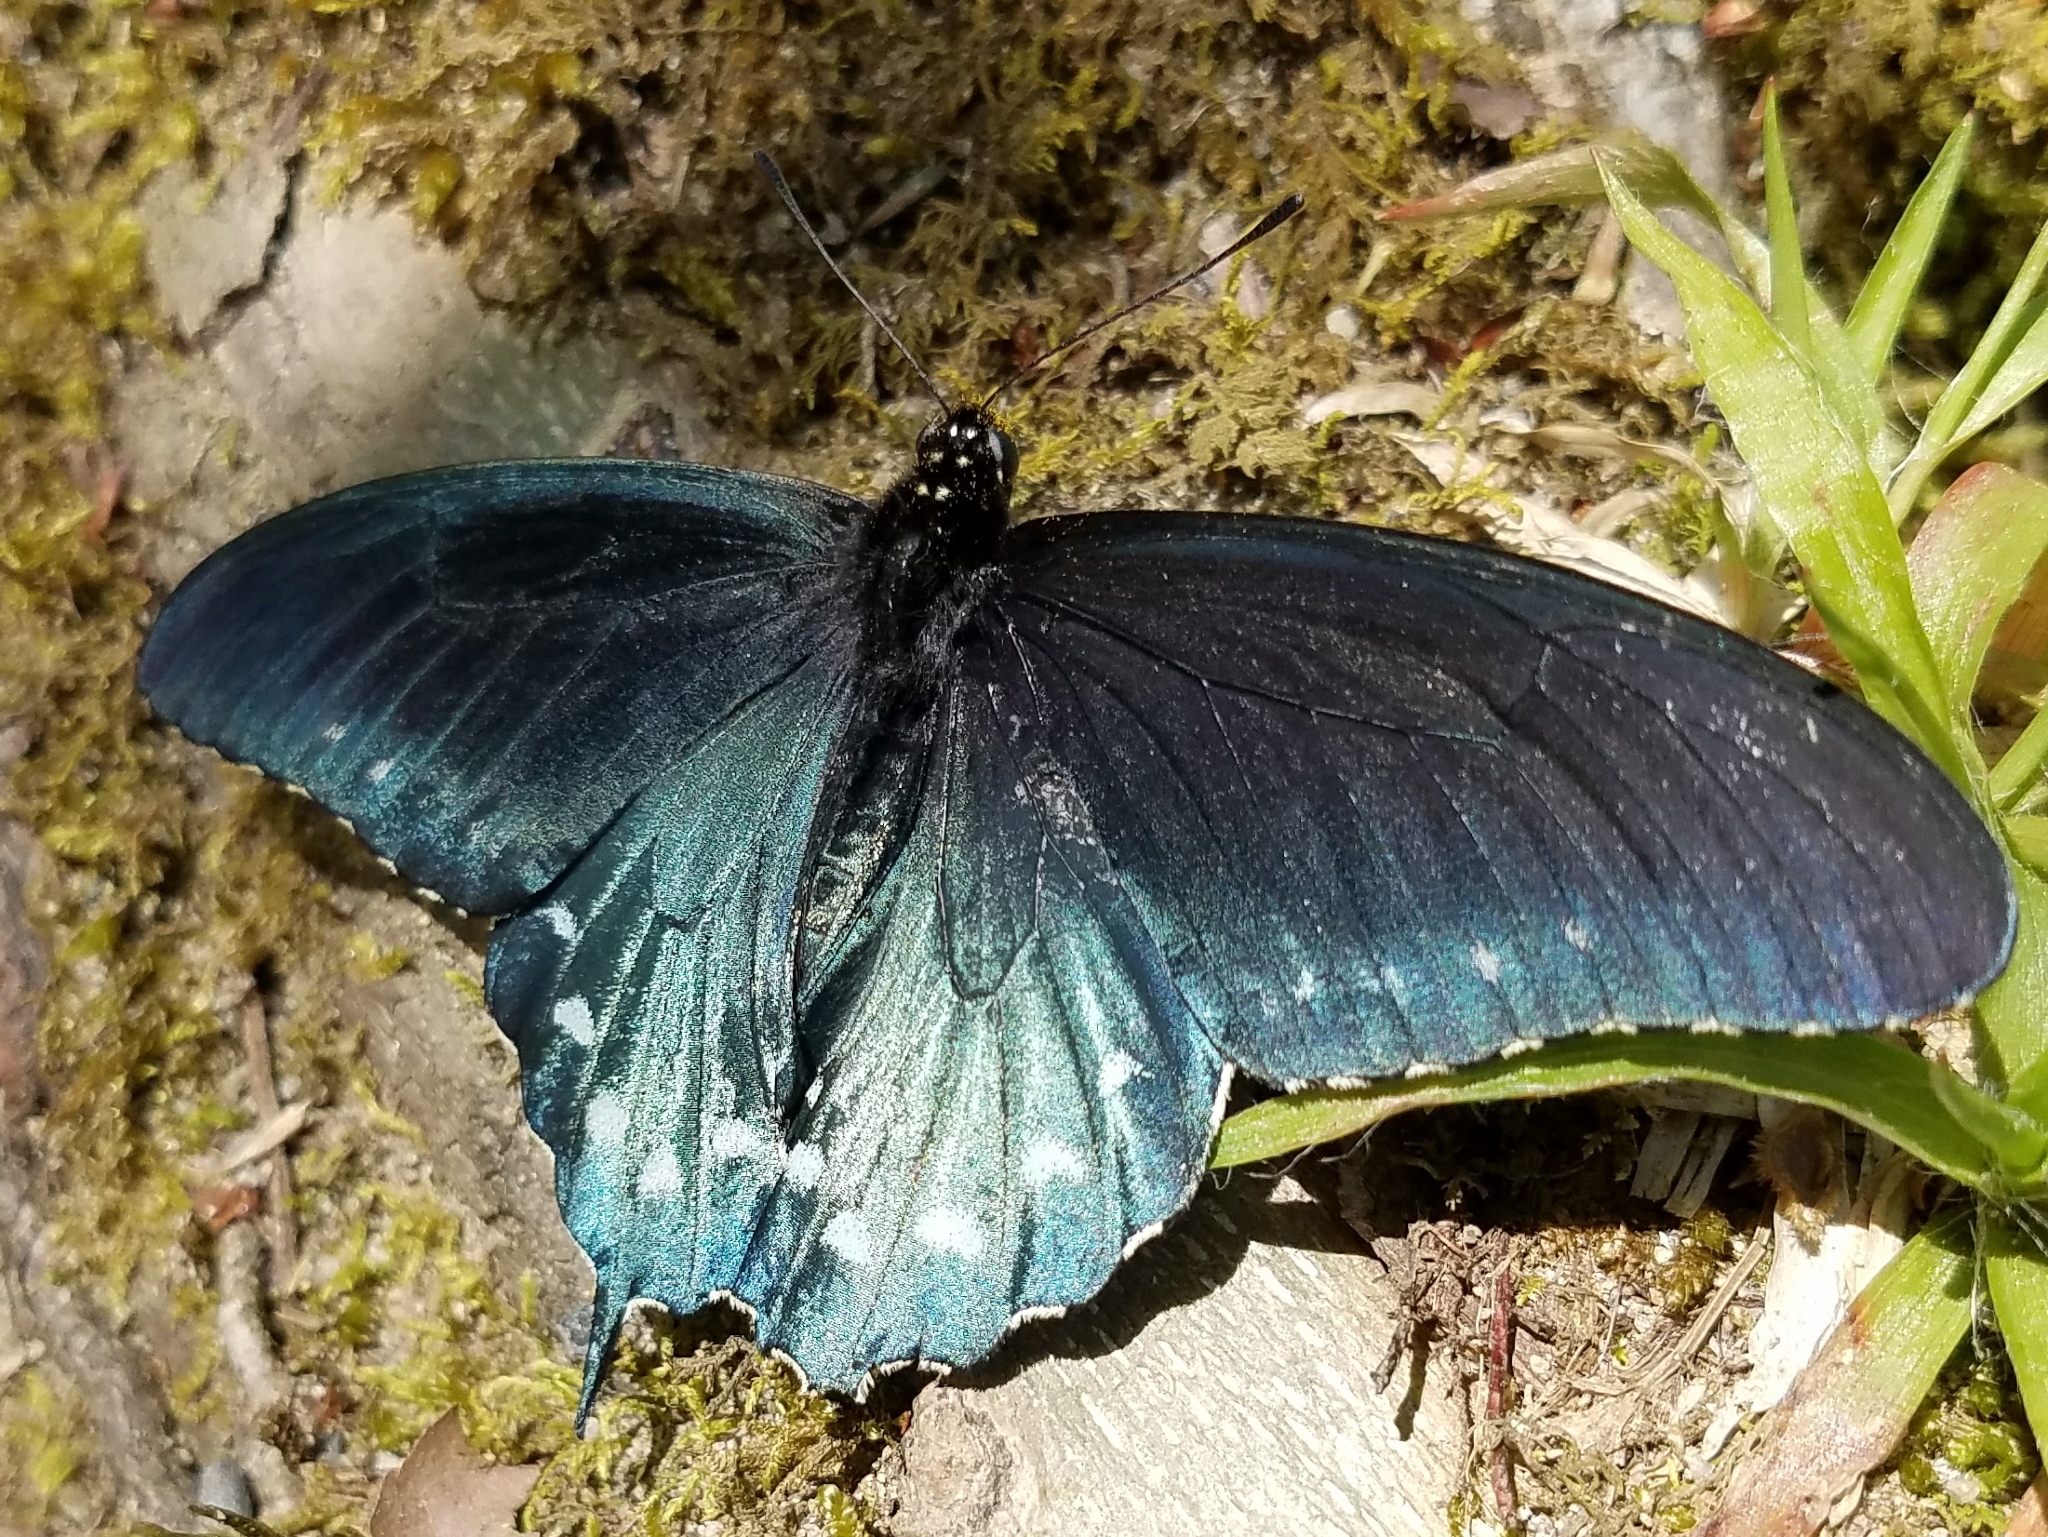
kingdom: Animalia
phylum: Arthropoda
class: Insecta
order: Lepidoptera
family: Papilionidae
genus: Battus
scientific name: Battus philenor
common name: Pipevine swallowtail
